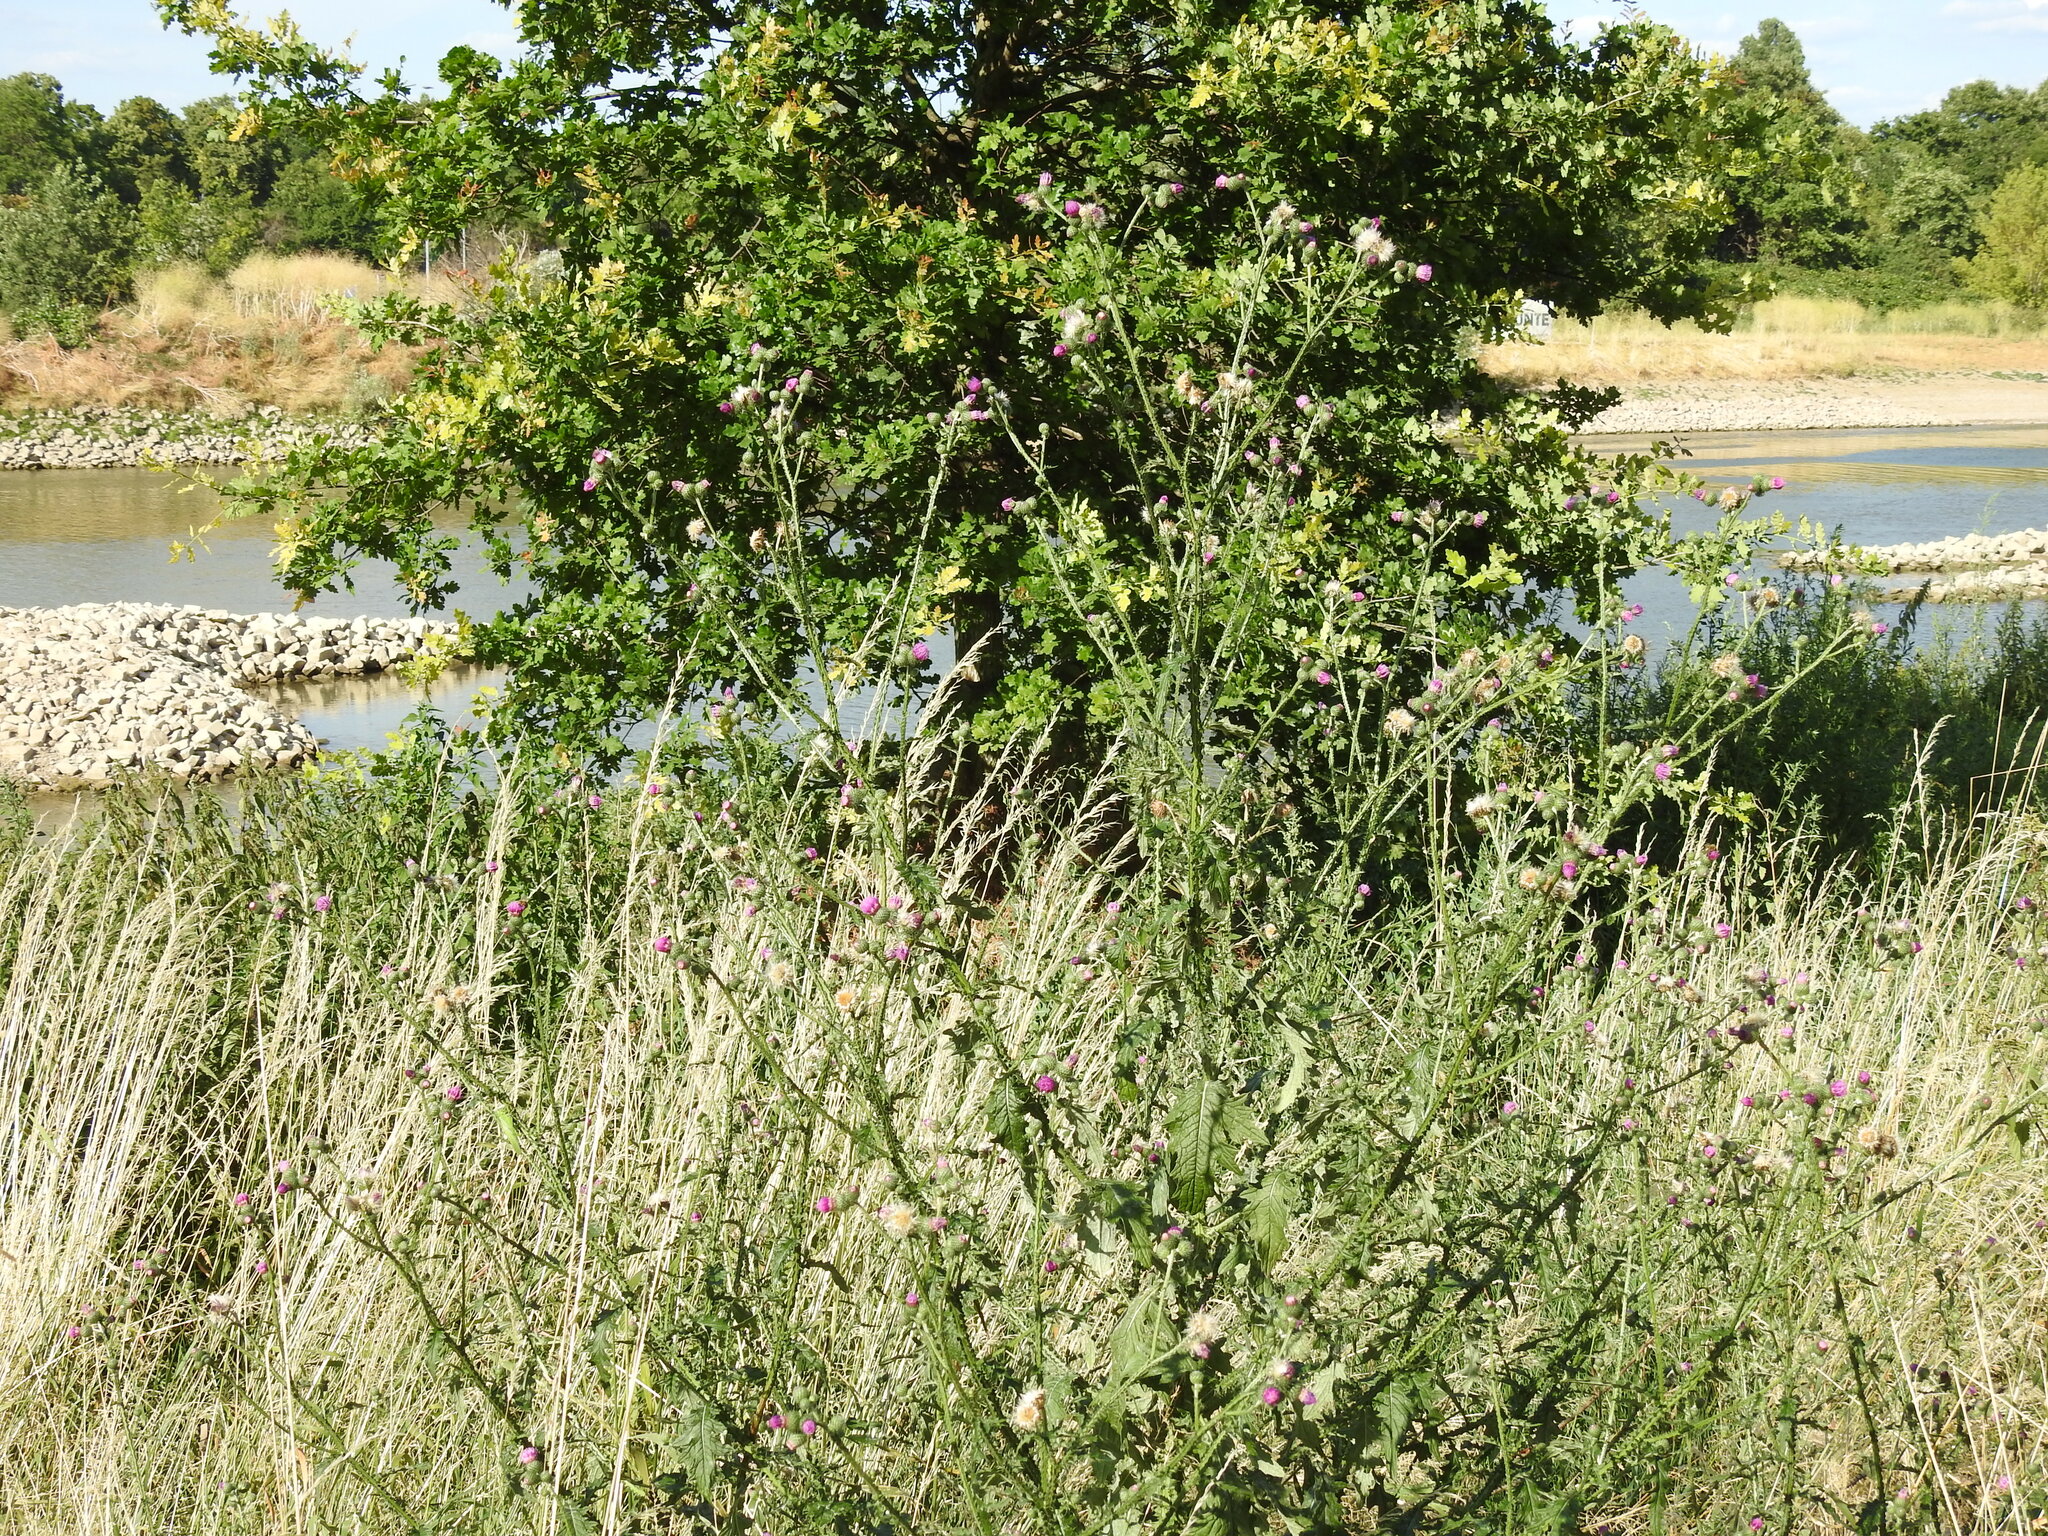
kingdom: Plantae
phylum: Tracheophyta
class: Magnoliopsida
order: Asterales
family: Asteraceae
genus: Carduus
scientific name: Carduus crispus
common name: Welted thistle
